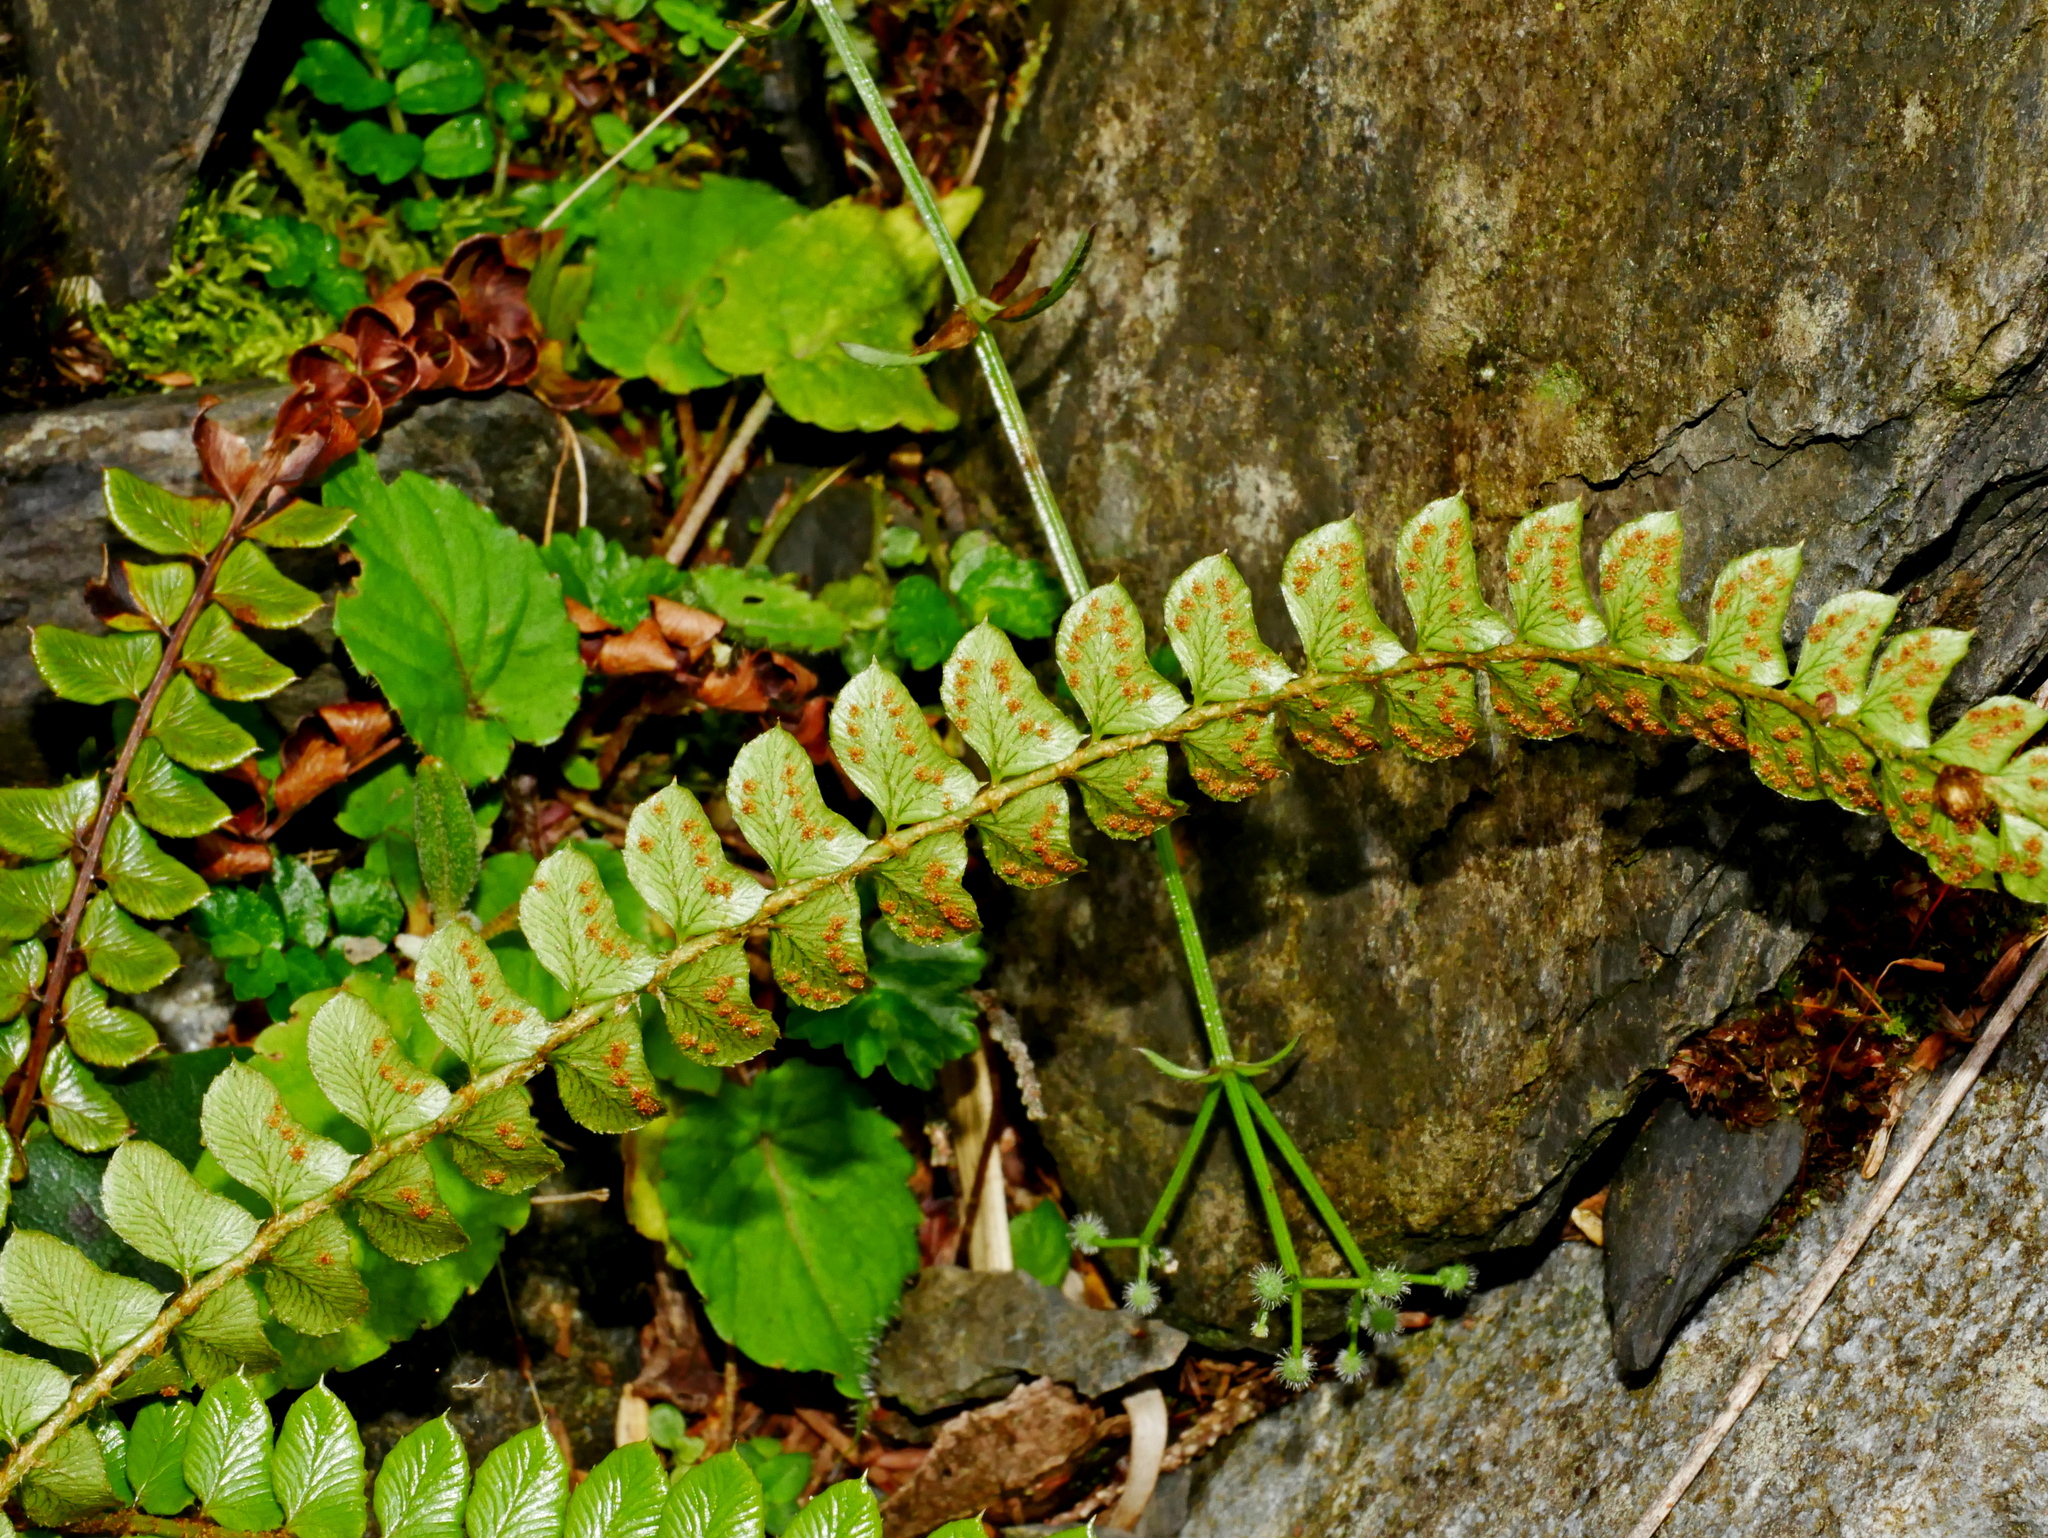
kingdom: Plantae
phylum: Tracheophyta
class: Polypodiopsida
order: Polypodiales
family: Dryopteridaceae
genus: Polystichum
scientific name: Polystichum levingei
